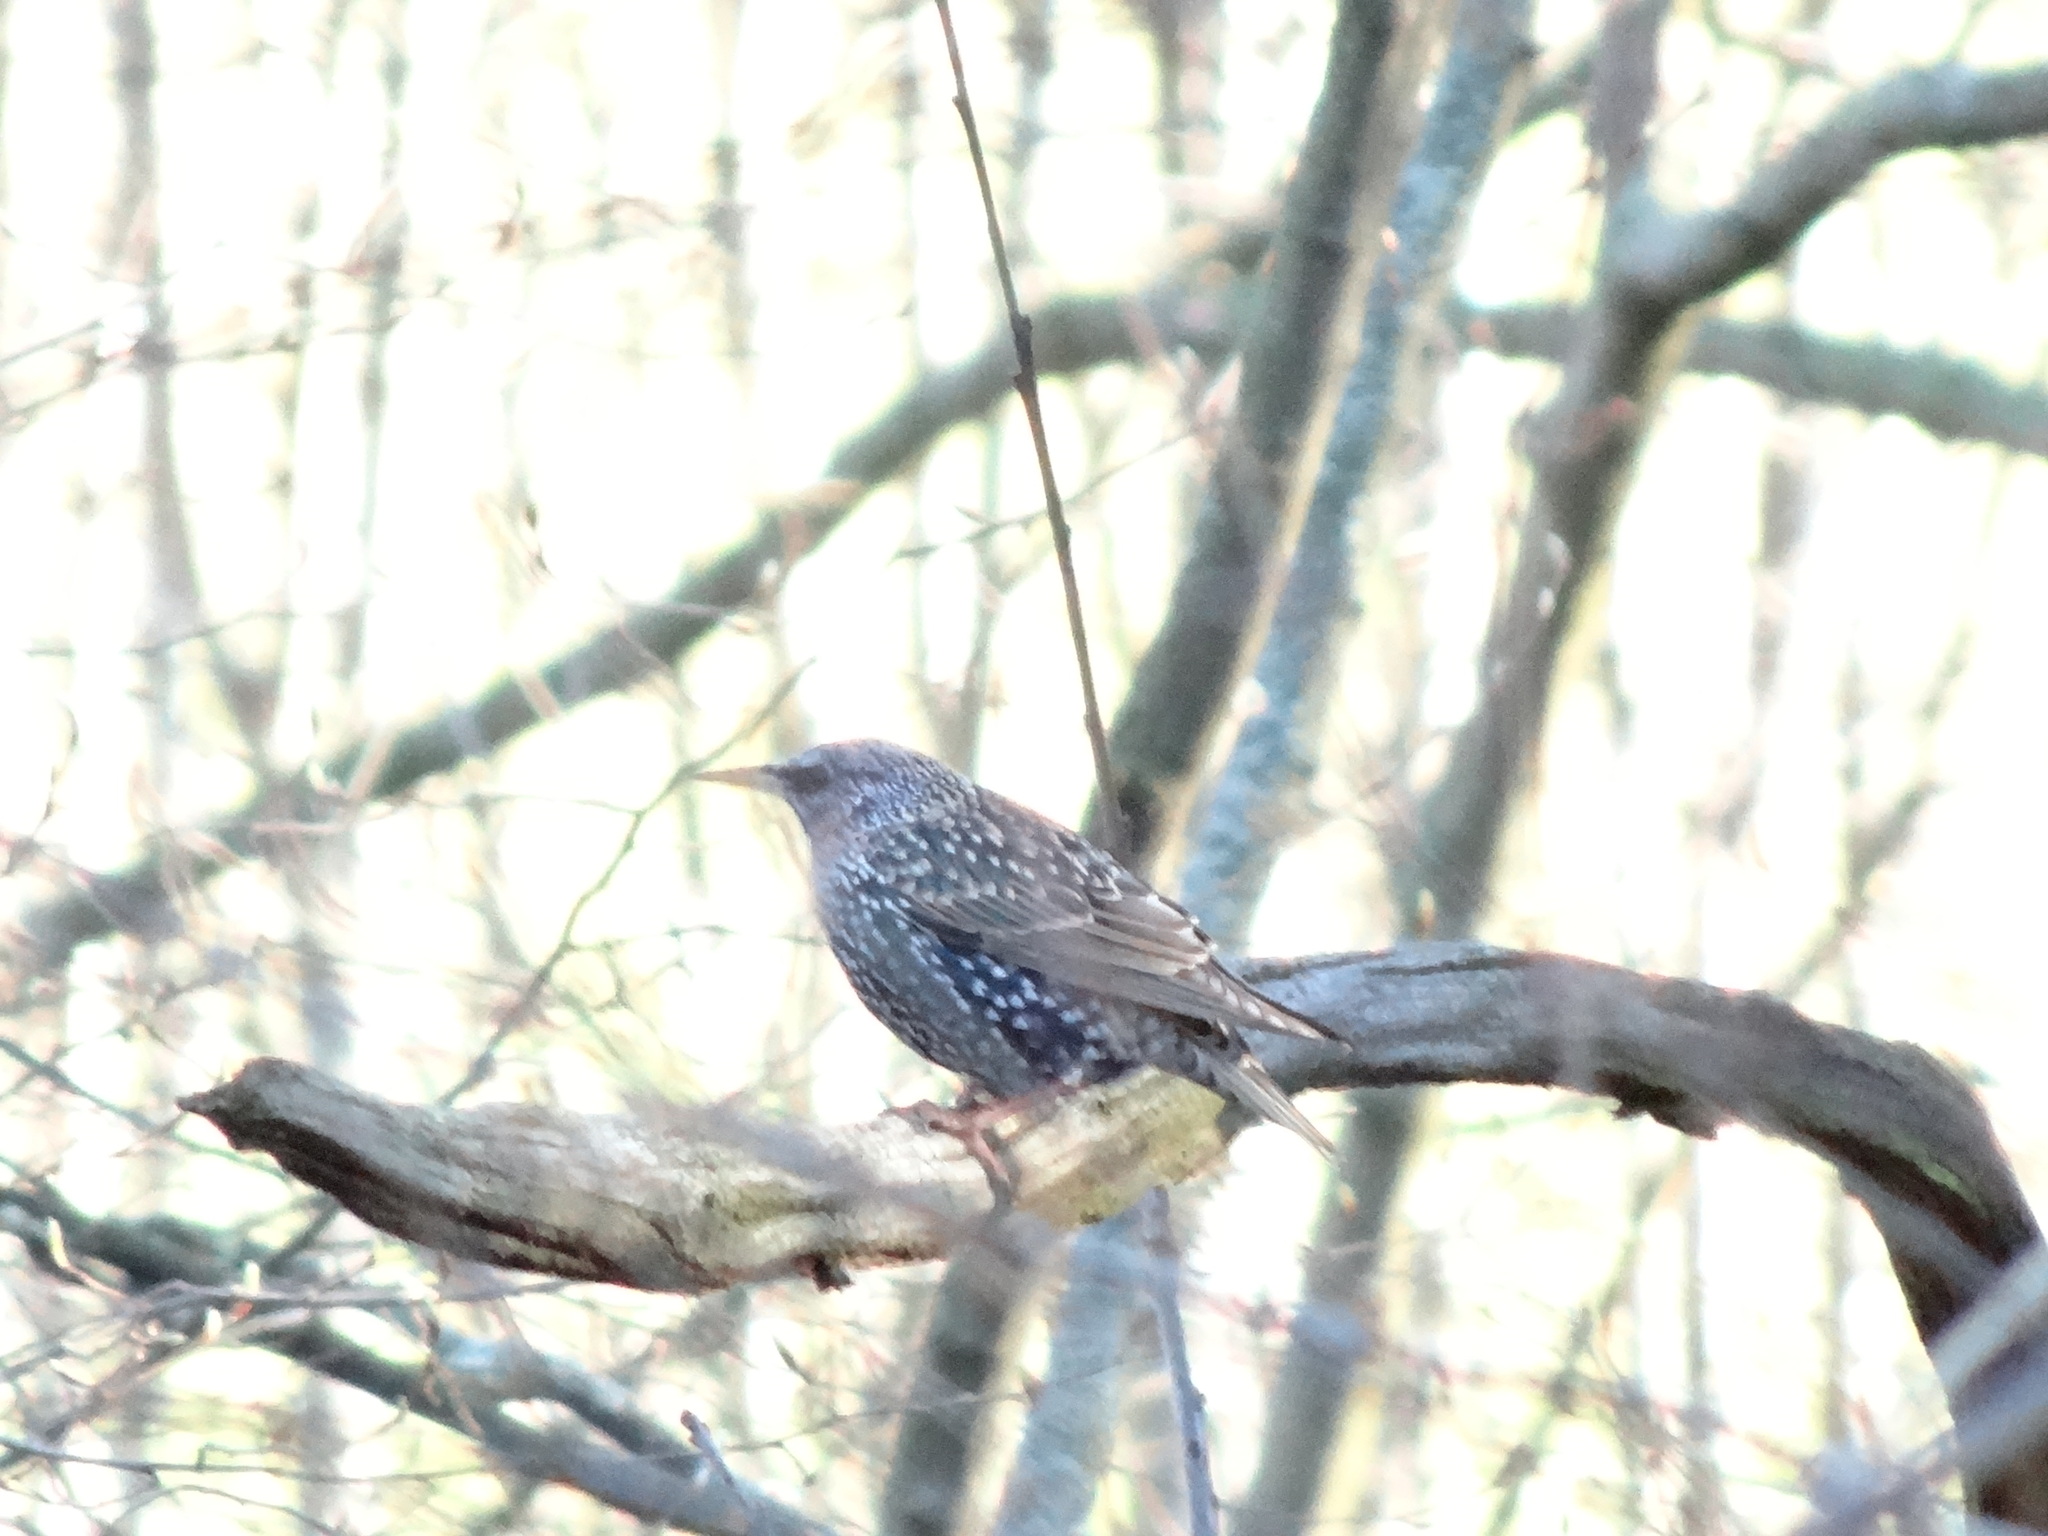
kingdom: Animalia
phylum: Chordata
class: Aves
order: Passeriformes
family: Sturnidae
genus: Sturnus
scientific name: Sturnus vulgaris
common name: Common starling
